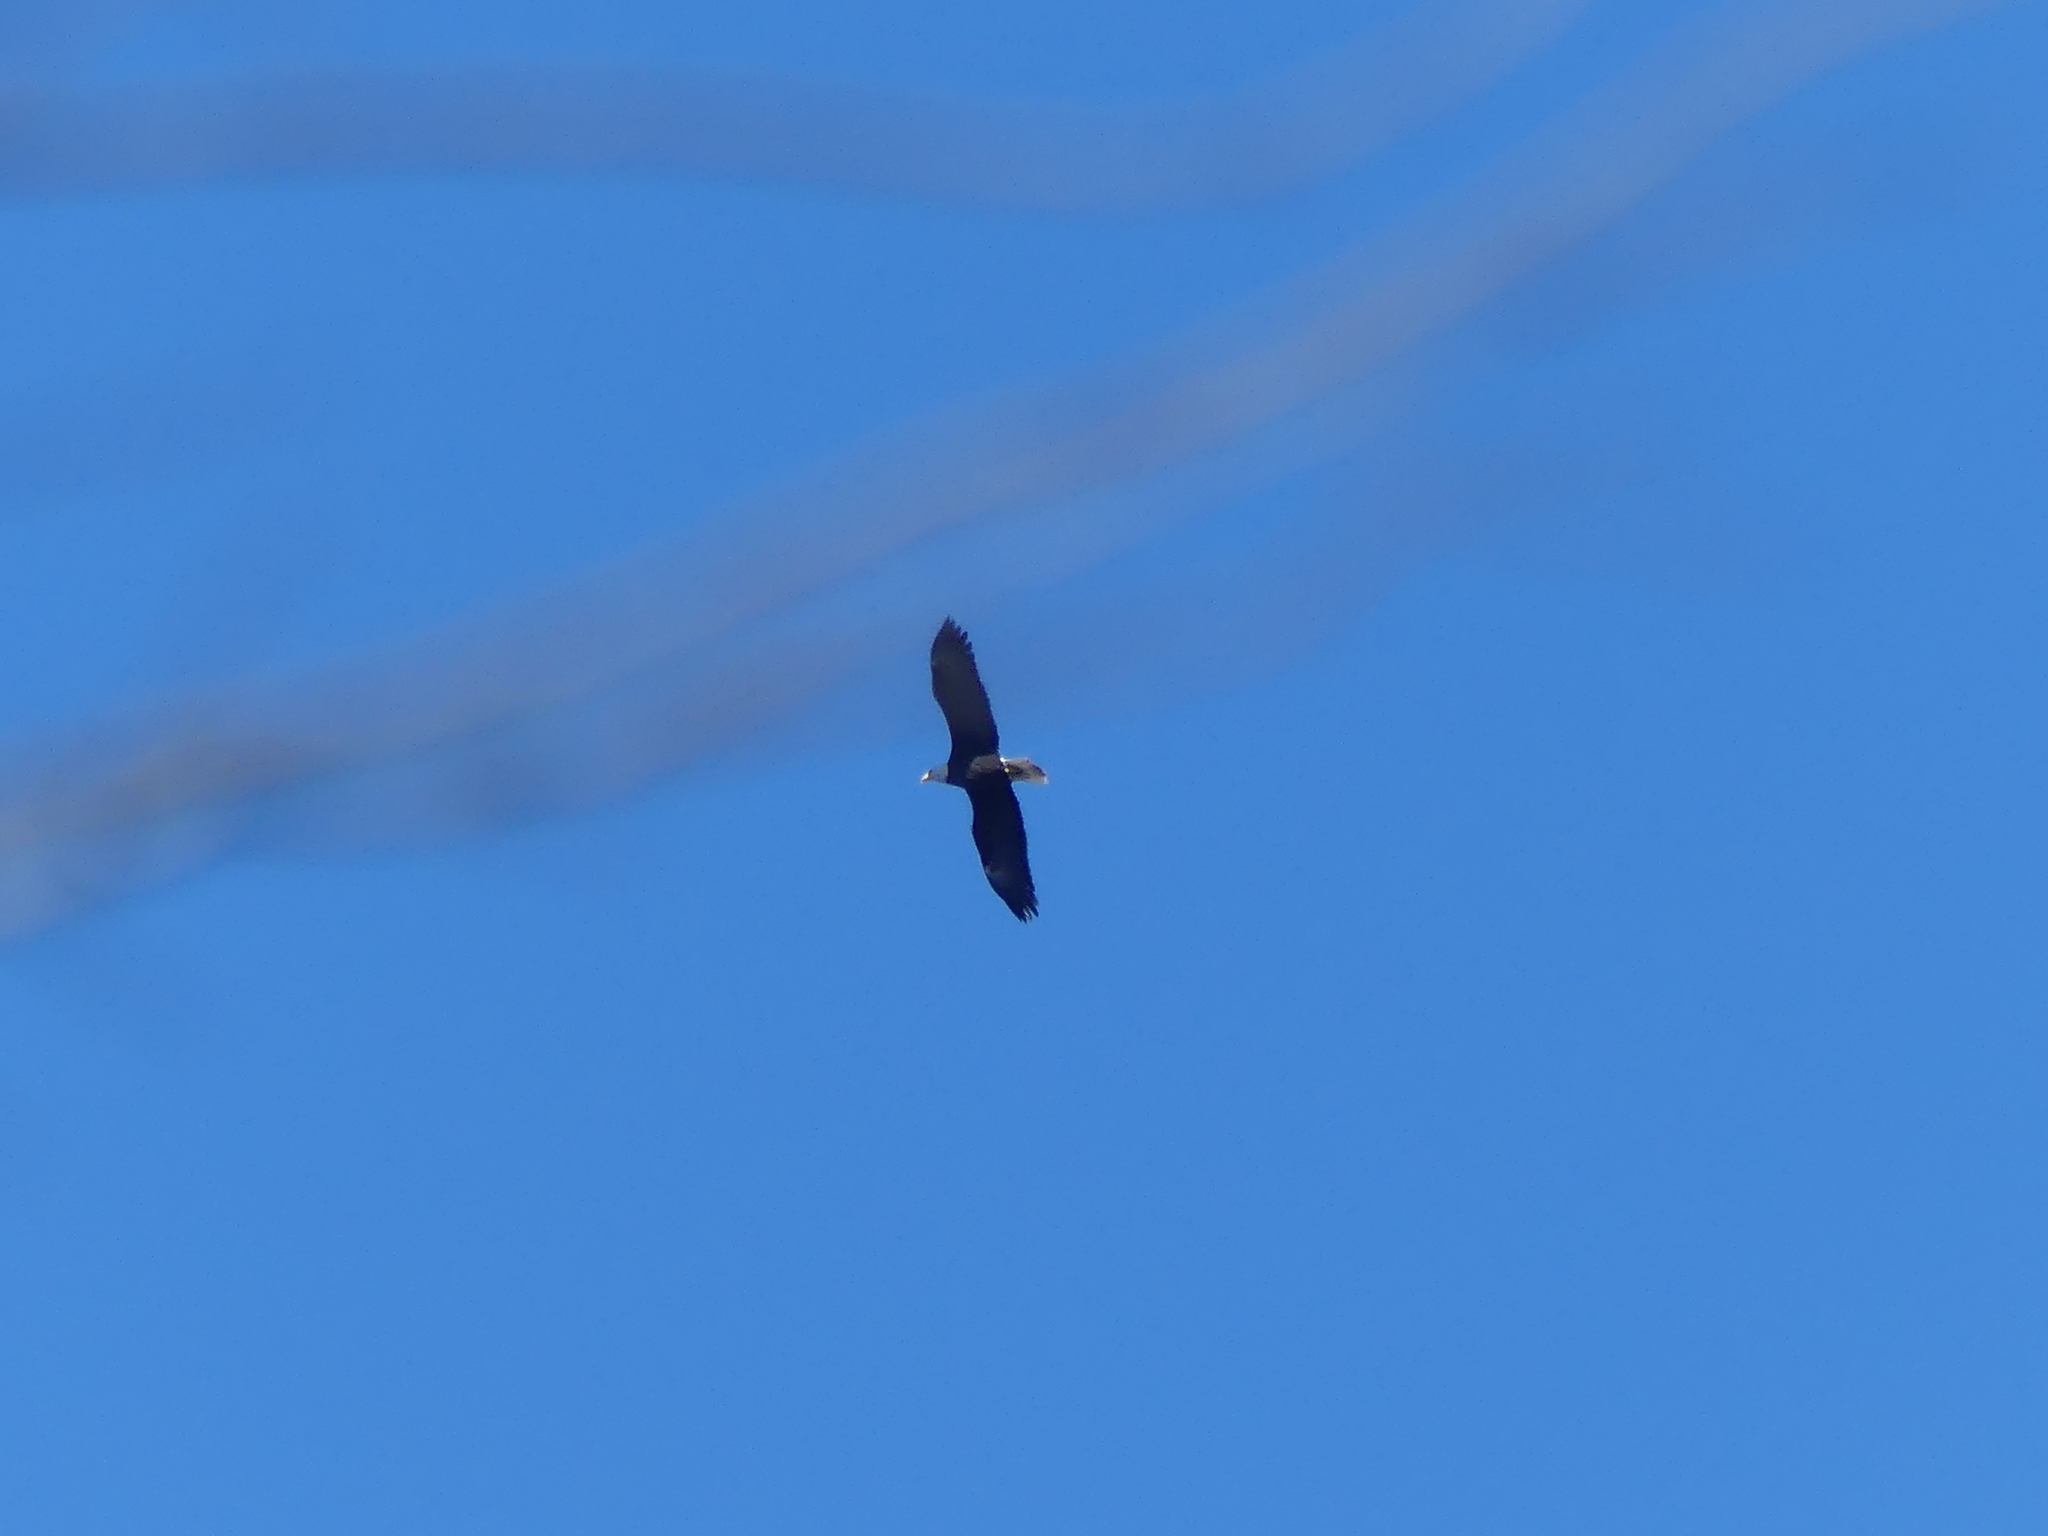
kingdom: Animalia
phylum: Chordata
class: Aves
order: Accipitriformes
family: Accipitridae
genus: Haliaeetus
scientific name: Haliaeetus leucocephalus
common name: Bald eagle
